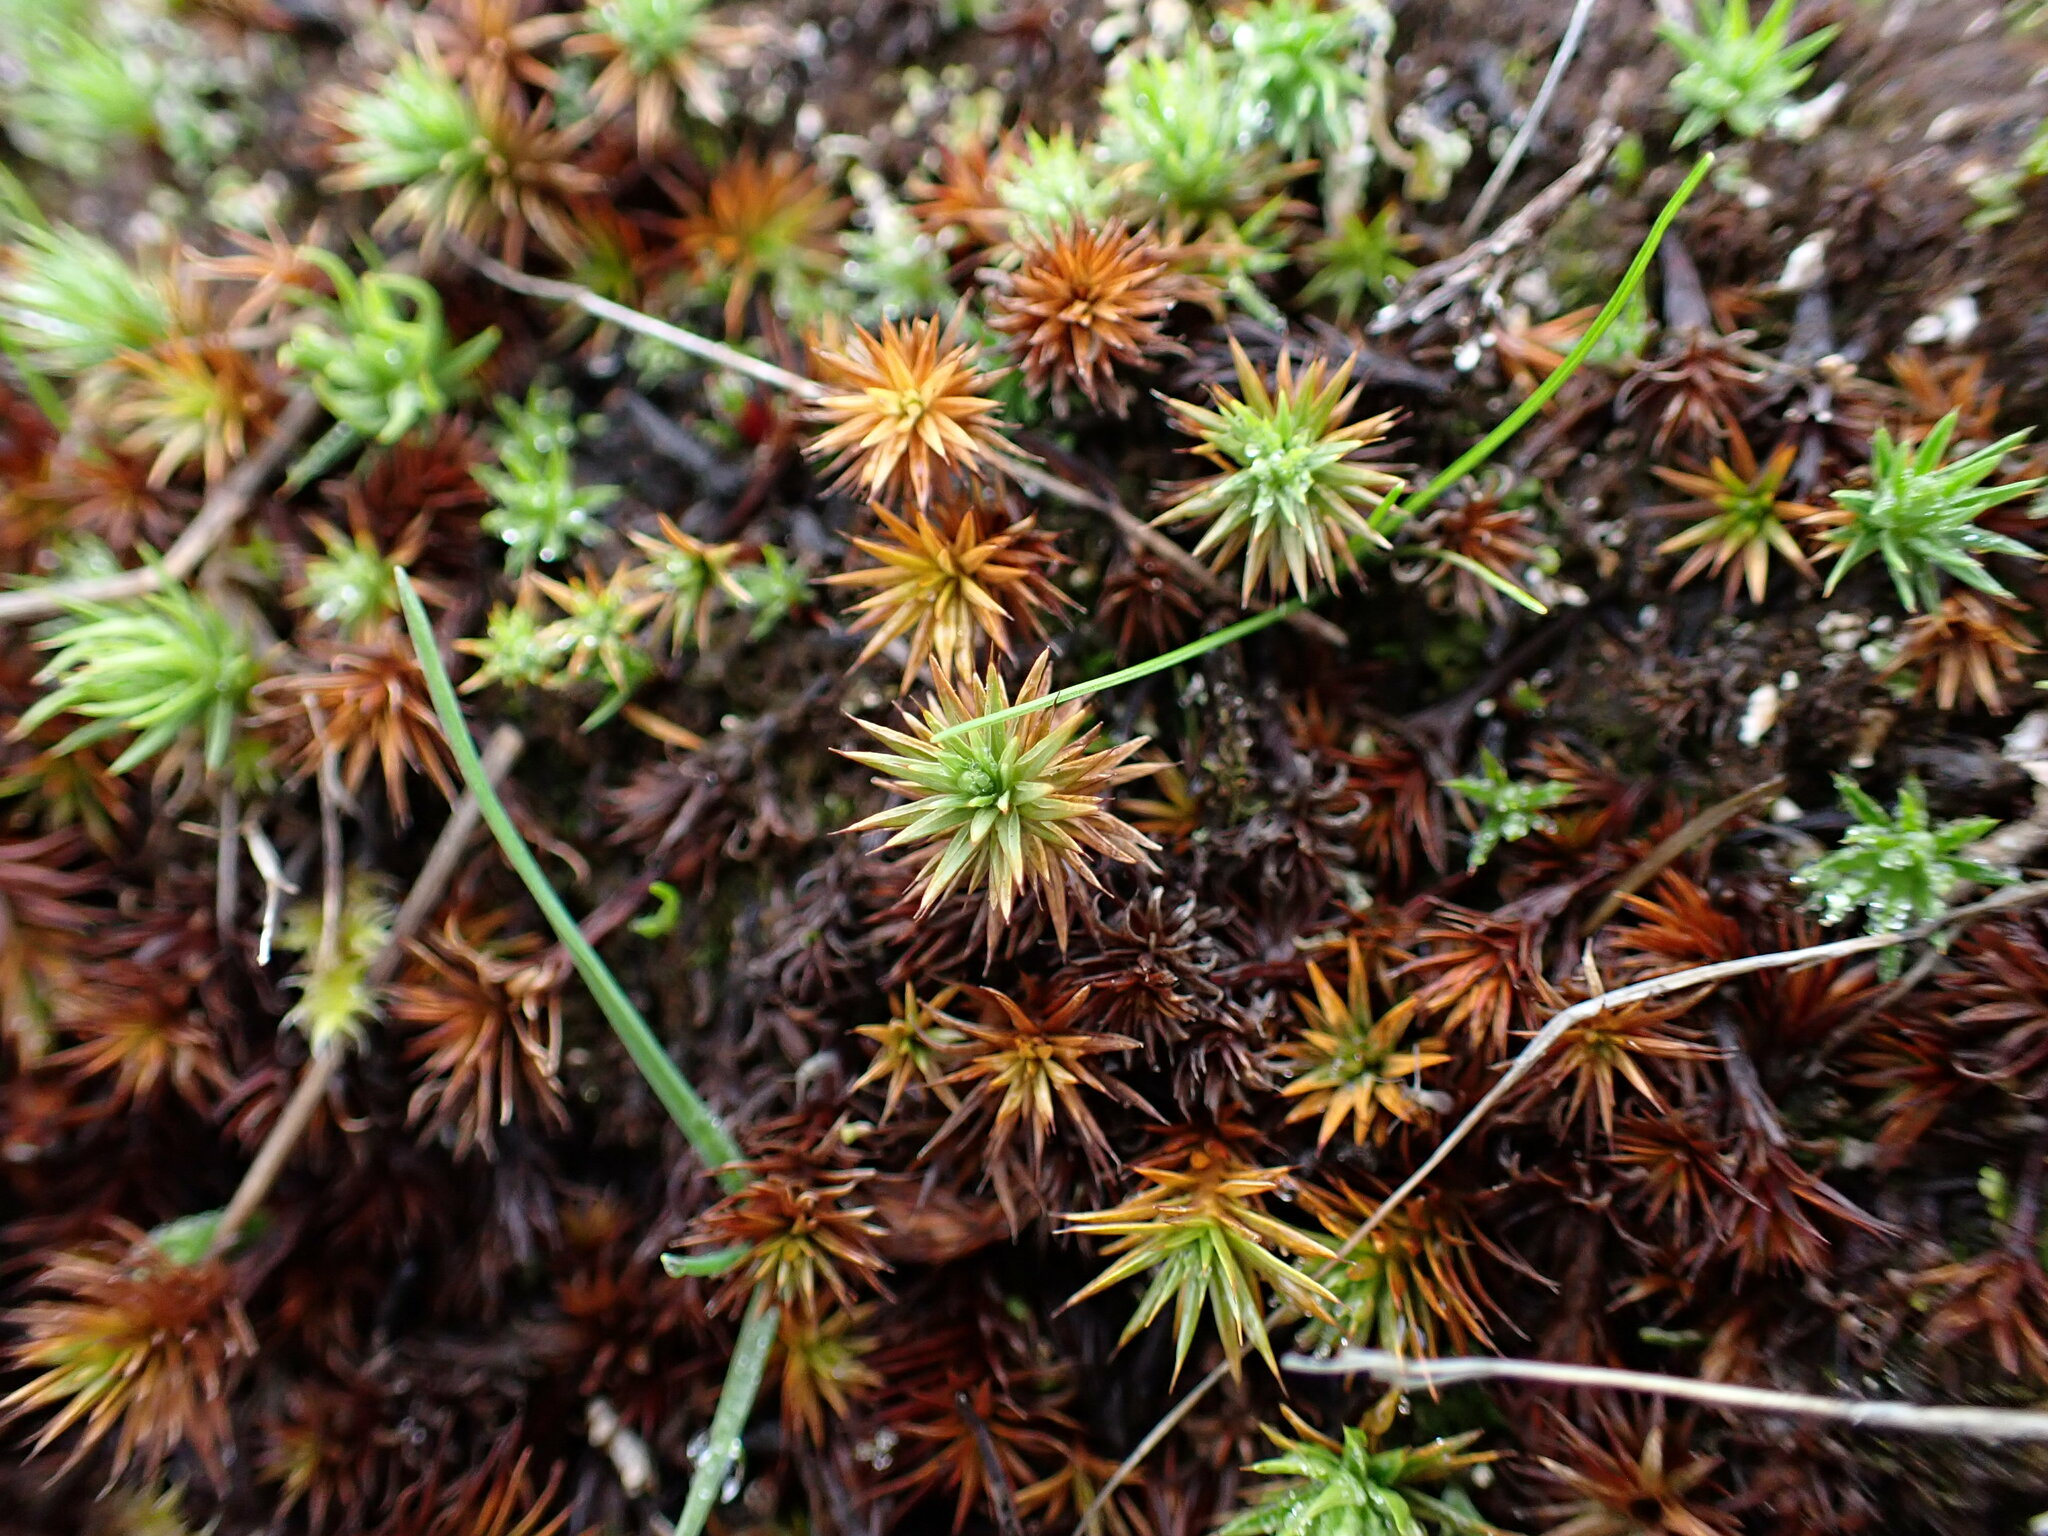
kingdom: Plantae
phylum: Bryophyta
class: Polytrichopsida
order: Polytrichales
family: Polytrichaceae
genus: Polytrichum
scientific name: Polytrichum juniperinum
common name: Juniper haircap moss
